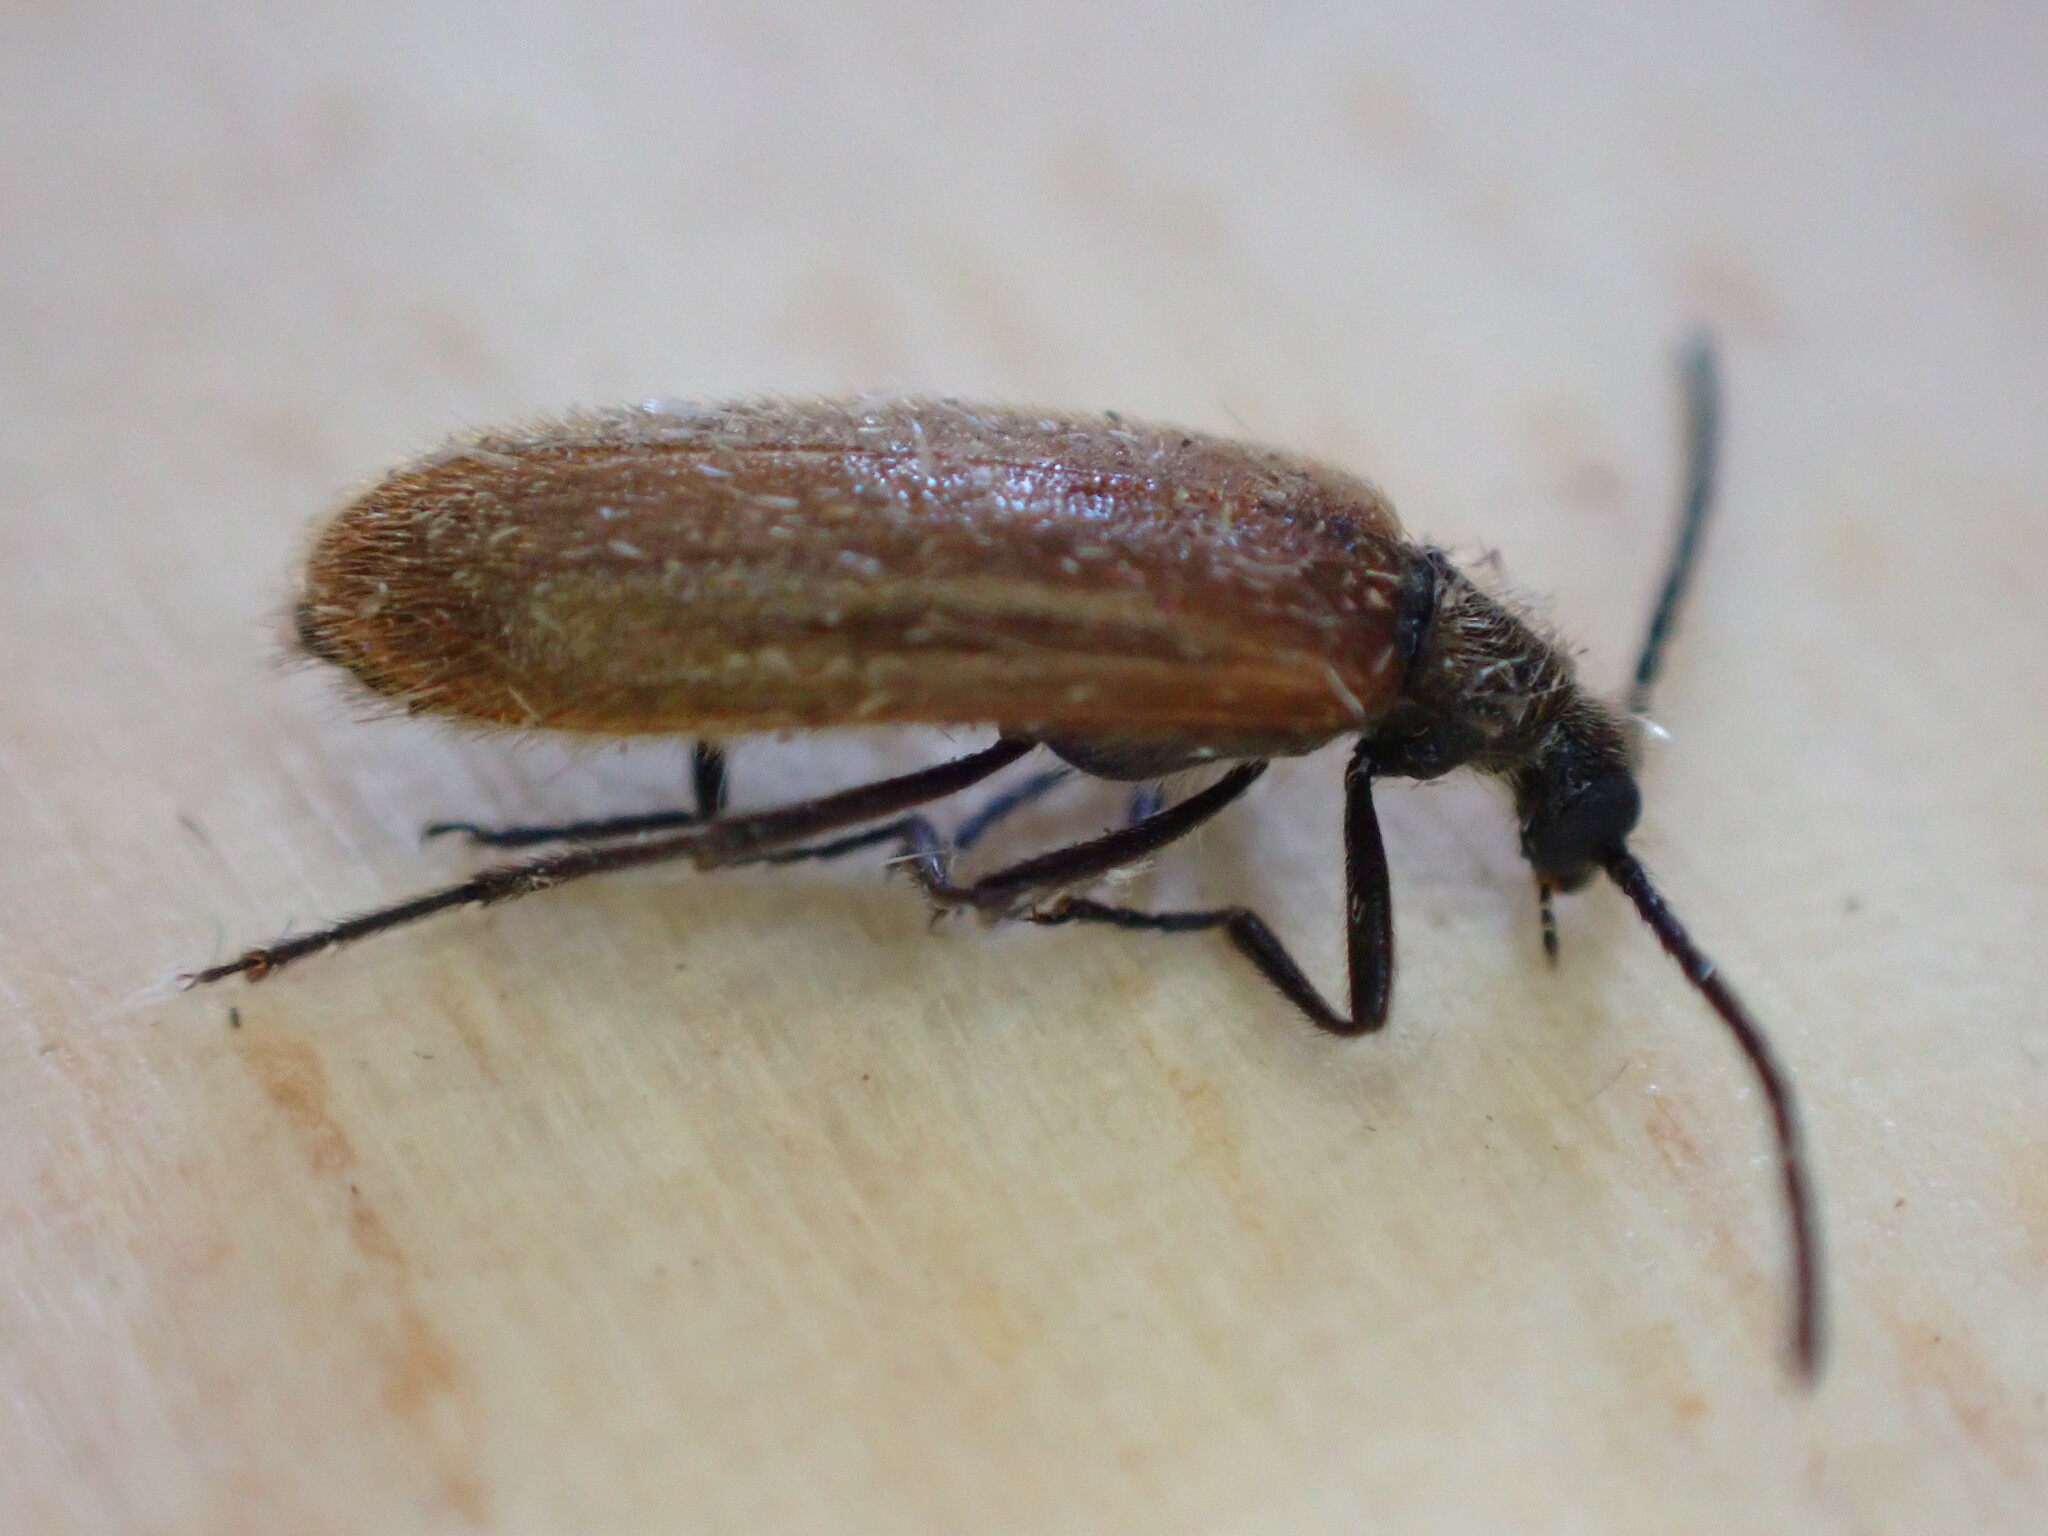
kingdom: Animalia
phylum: Arthropoda
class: Insecta
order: Coleoptera
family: Tenebrionidae
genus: Lagria
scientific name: Lagria hirta
